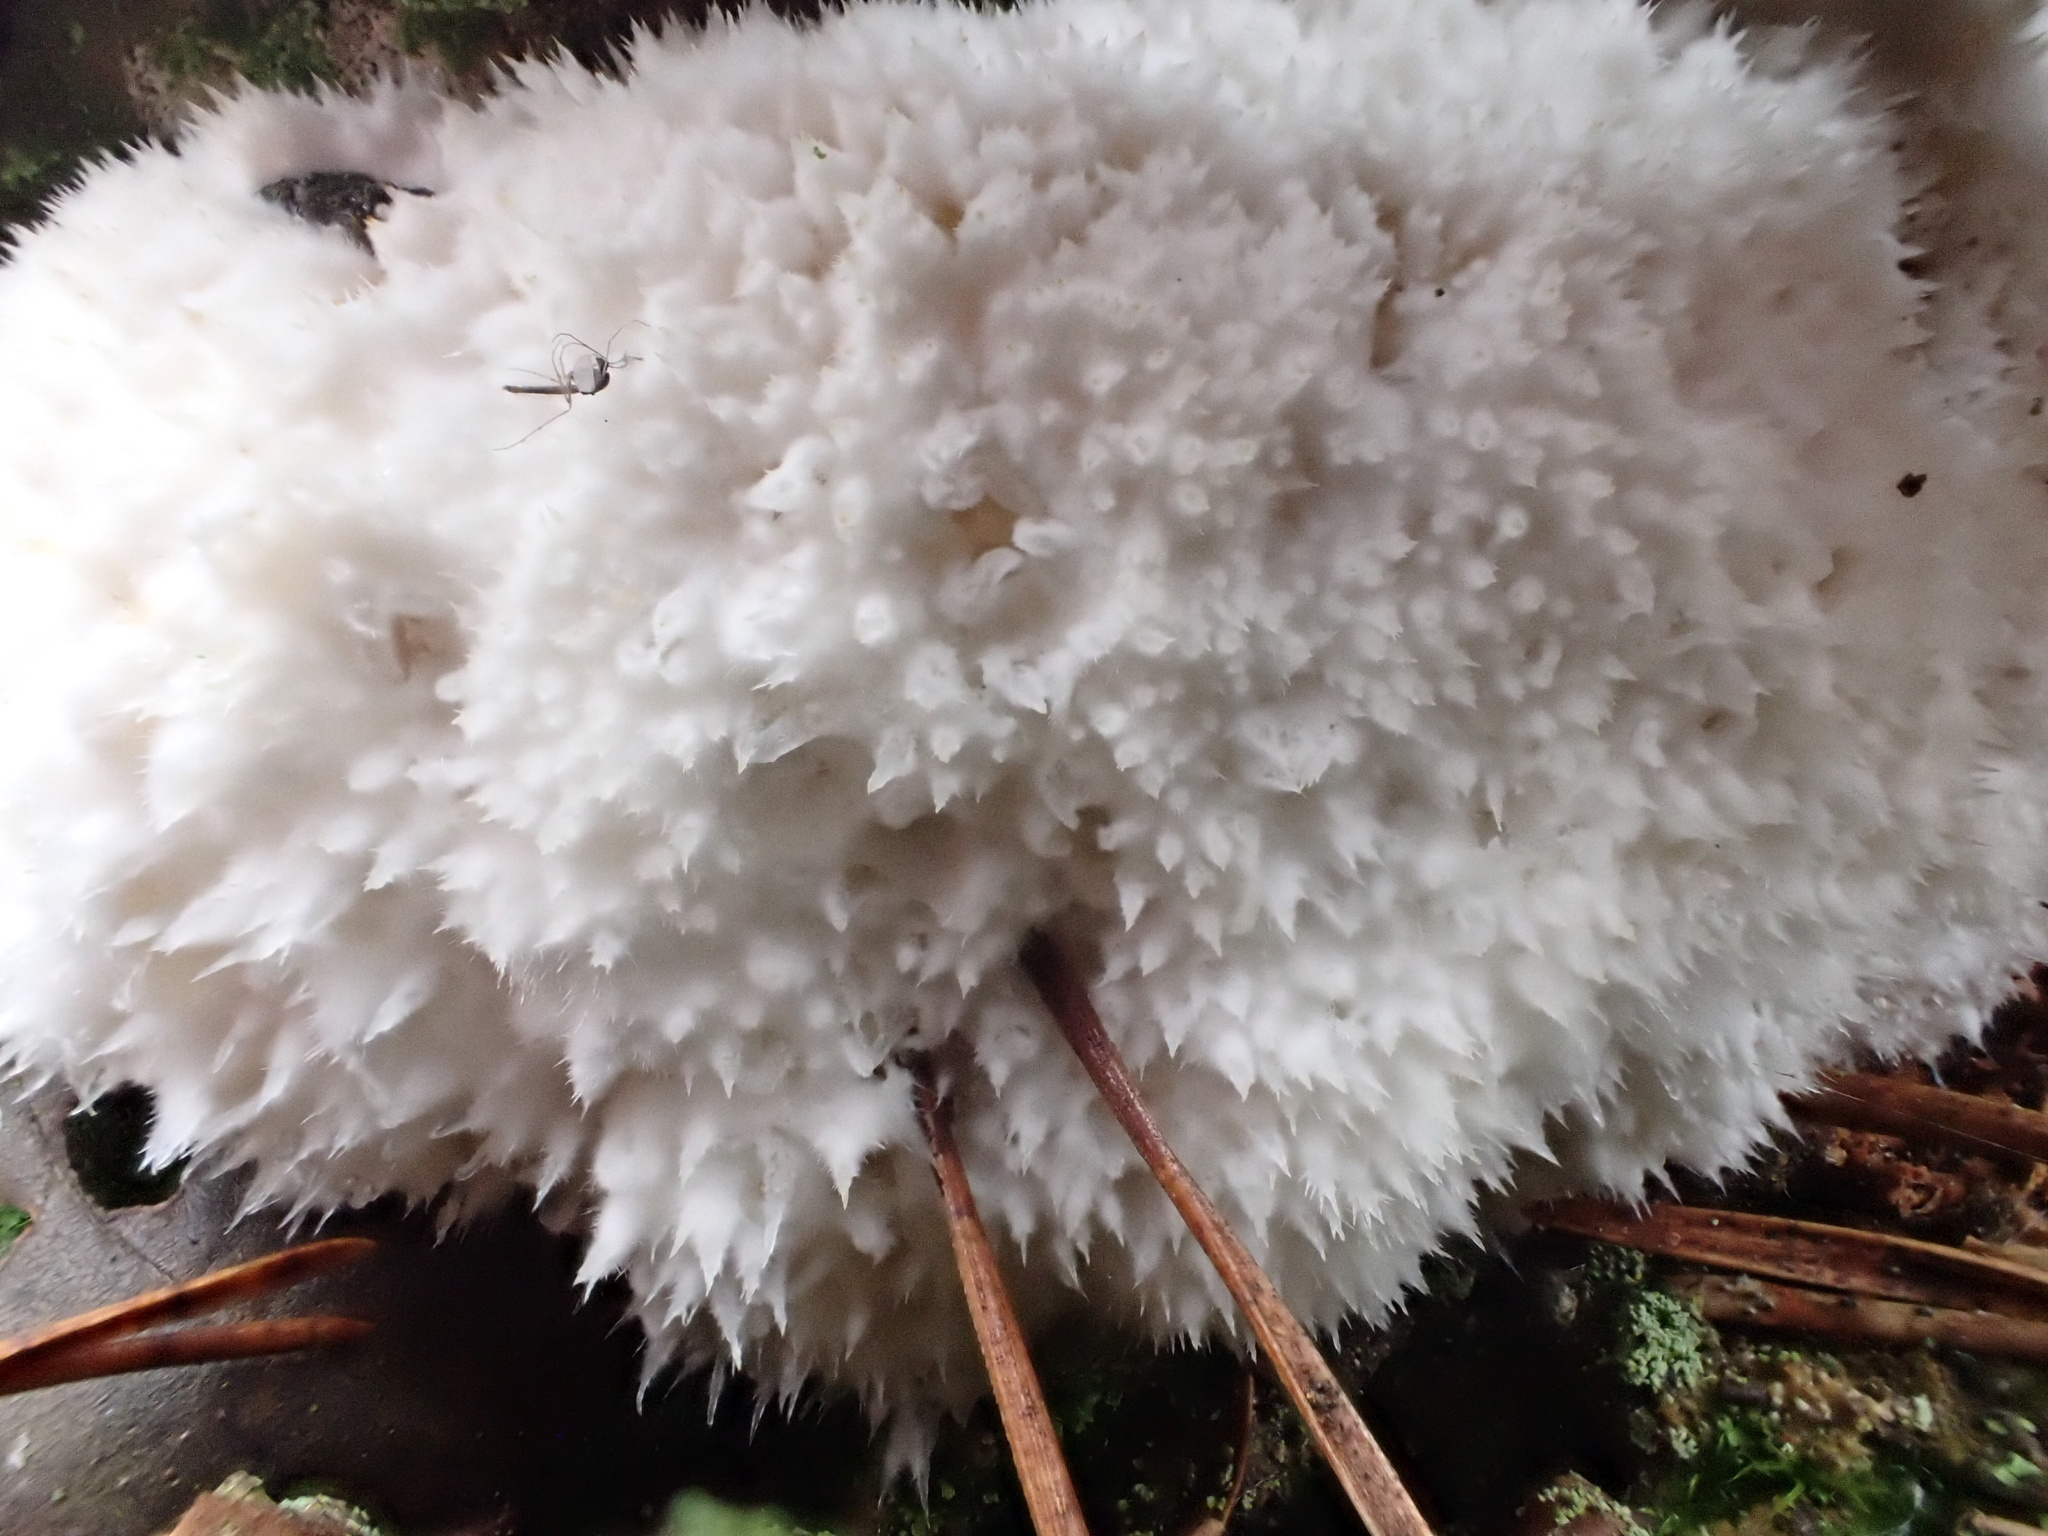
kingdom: Fungi
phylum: Basidiomycota
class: Agaricomycetes
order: Polyporales
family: Dacryobolaceae
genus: Postia
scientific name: Postia ptychogaster
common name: Powderpuff bracket
